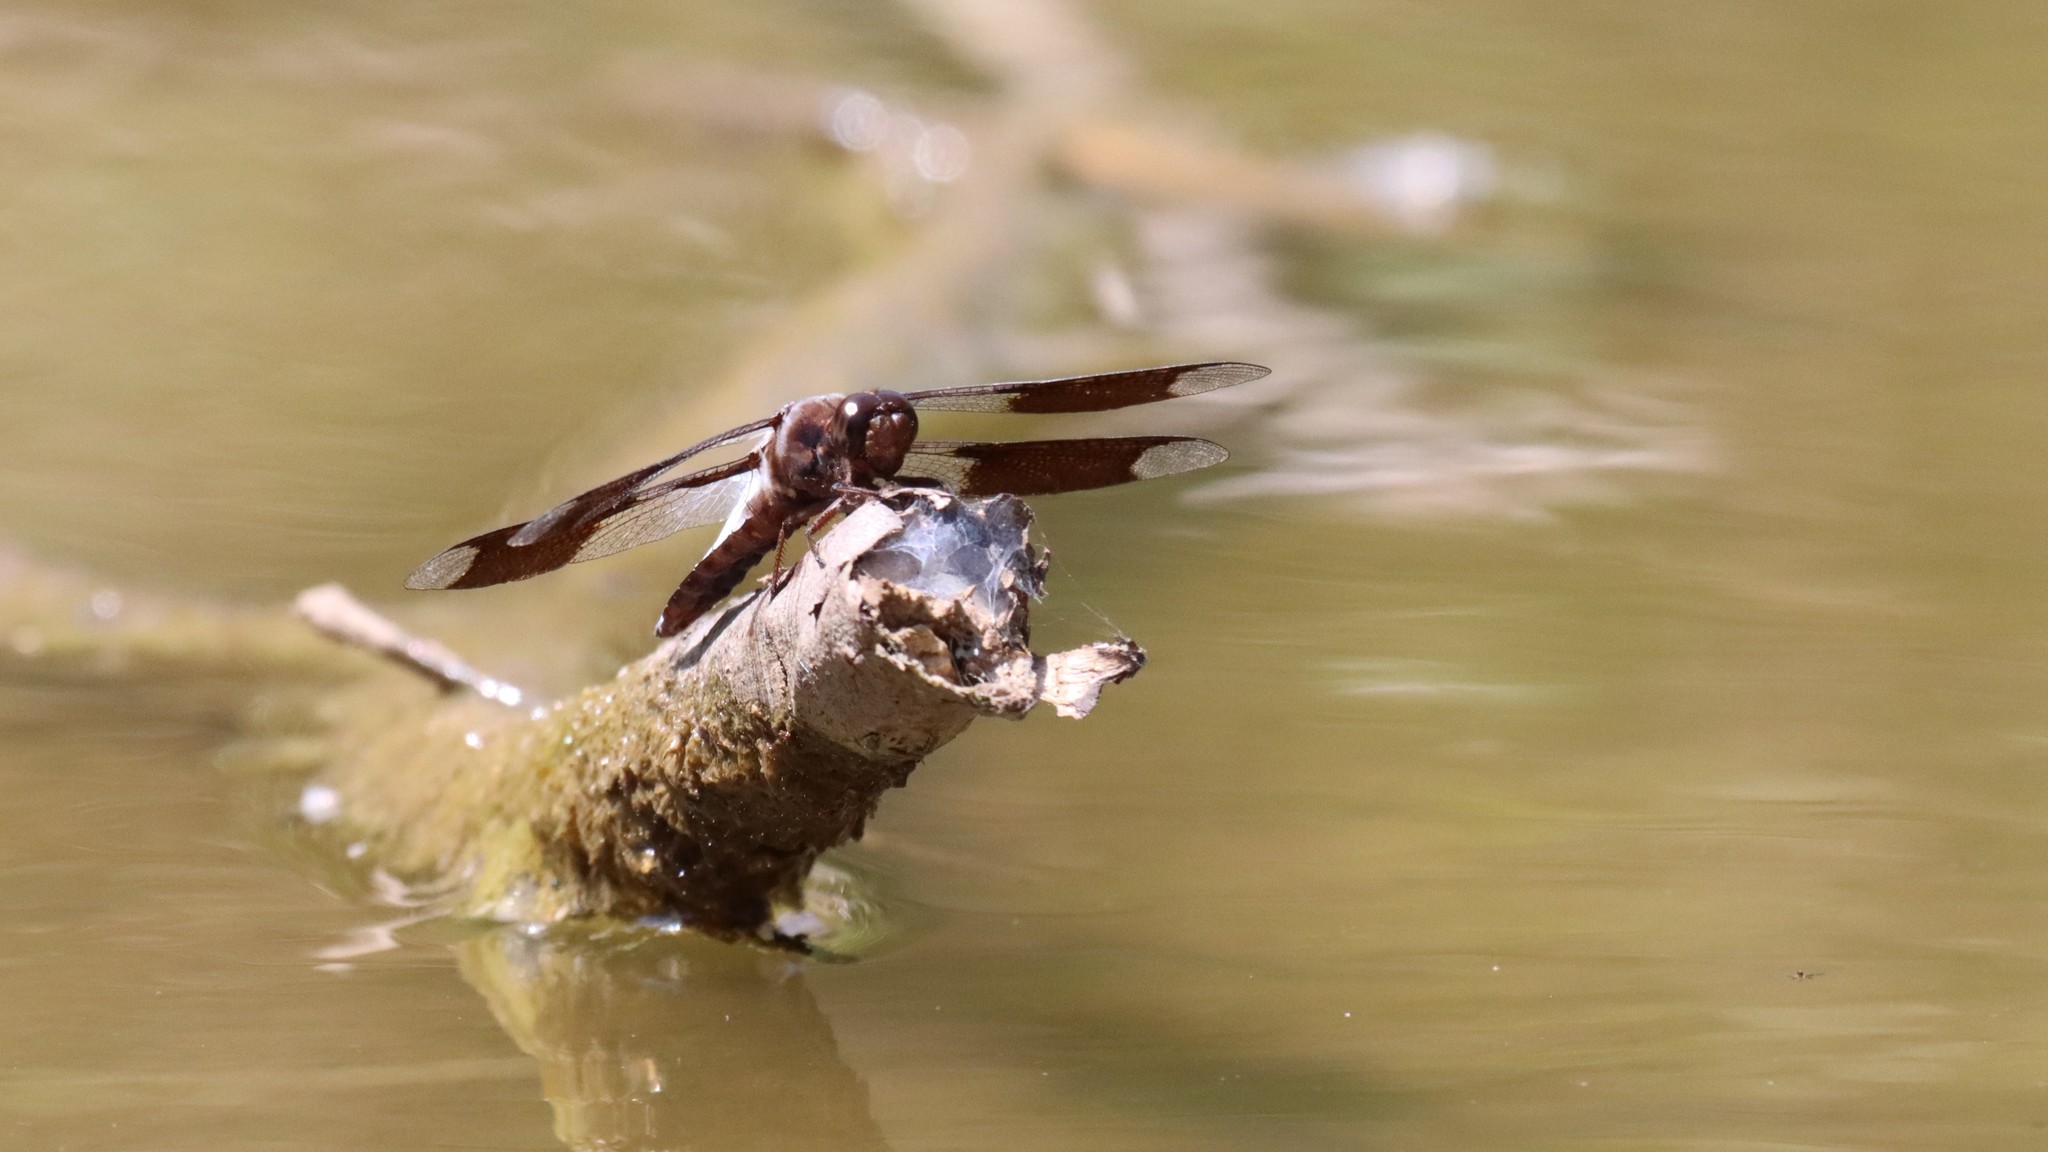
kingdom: Animalia
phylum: Arthropoda
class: Insecta
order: Odonata
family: Libellulidae
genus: Plathemis
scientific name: Plathemis lydia
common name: Common whitetail
